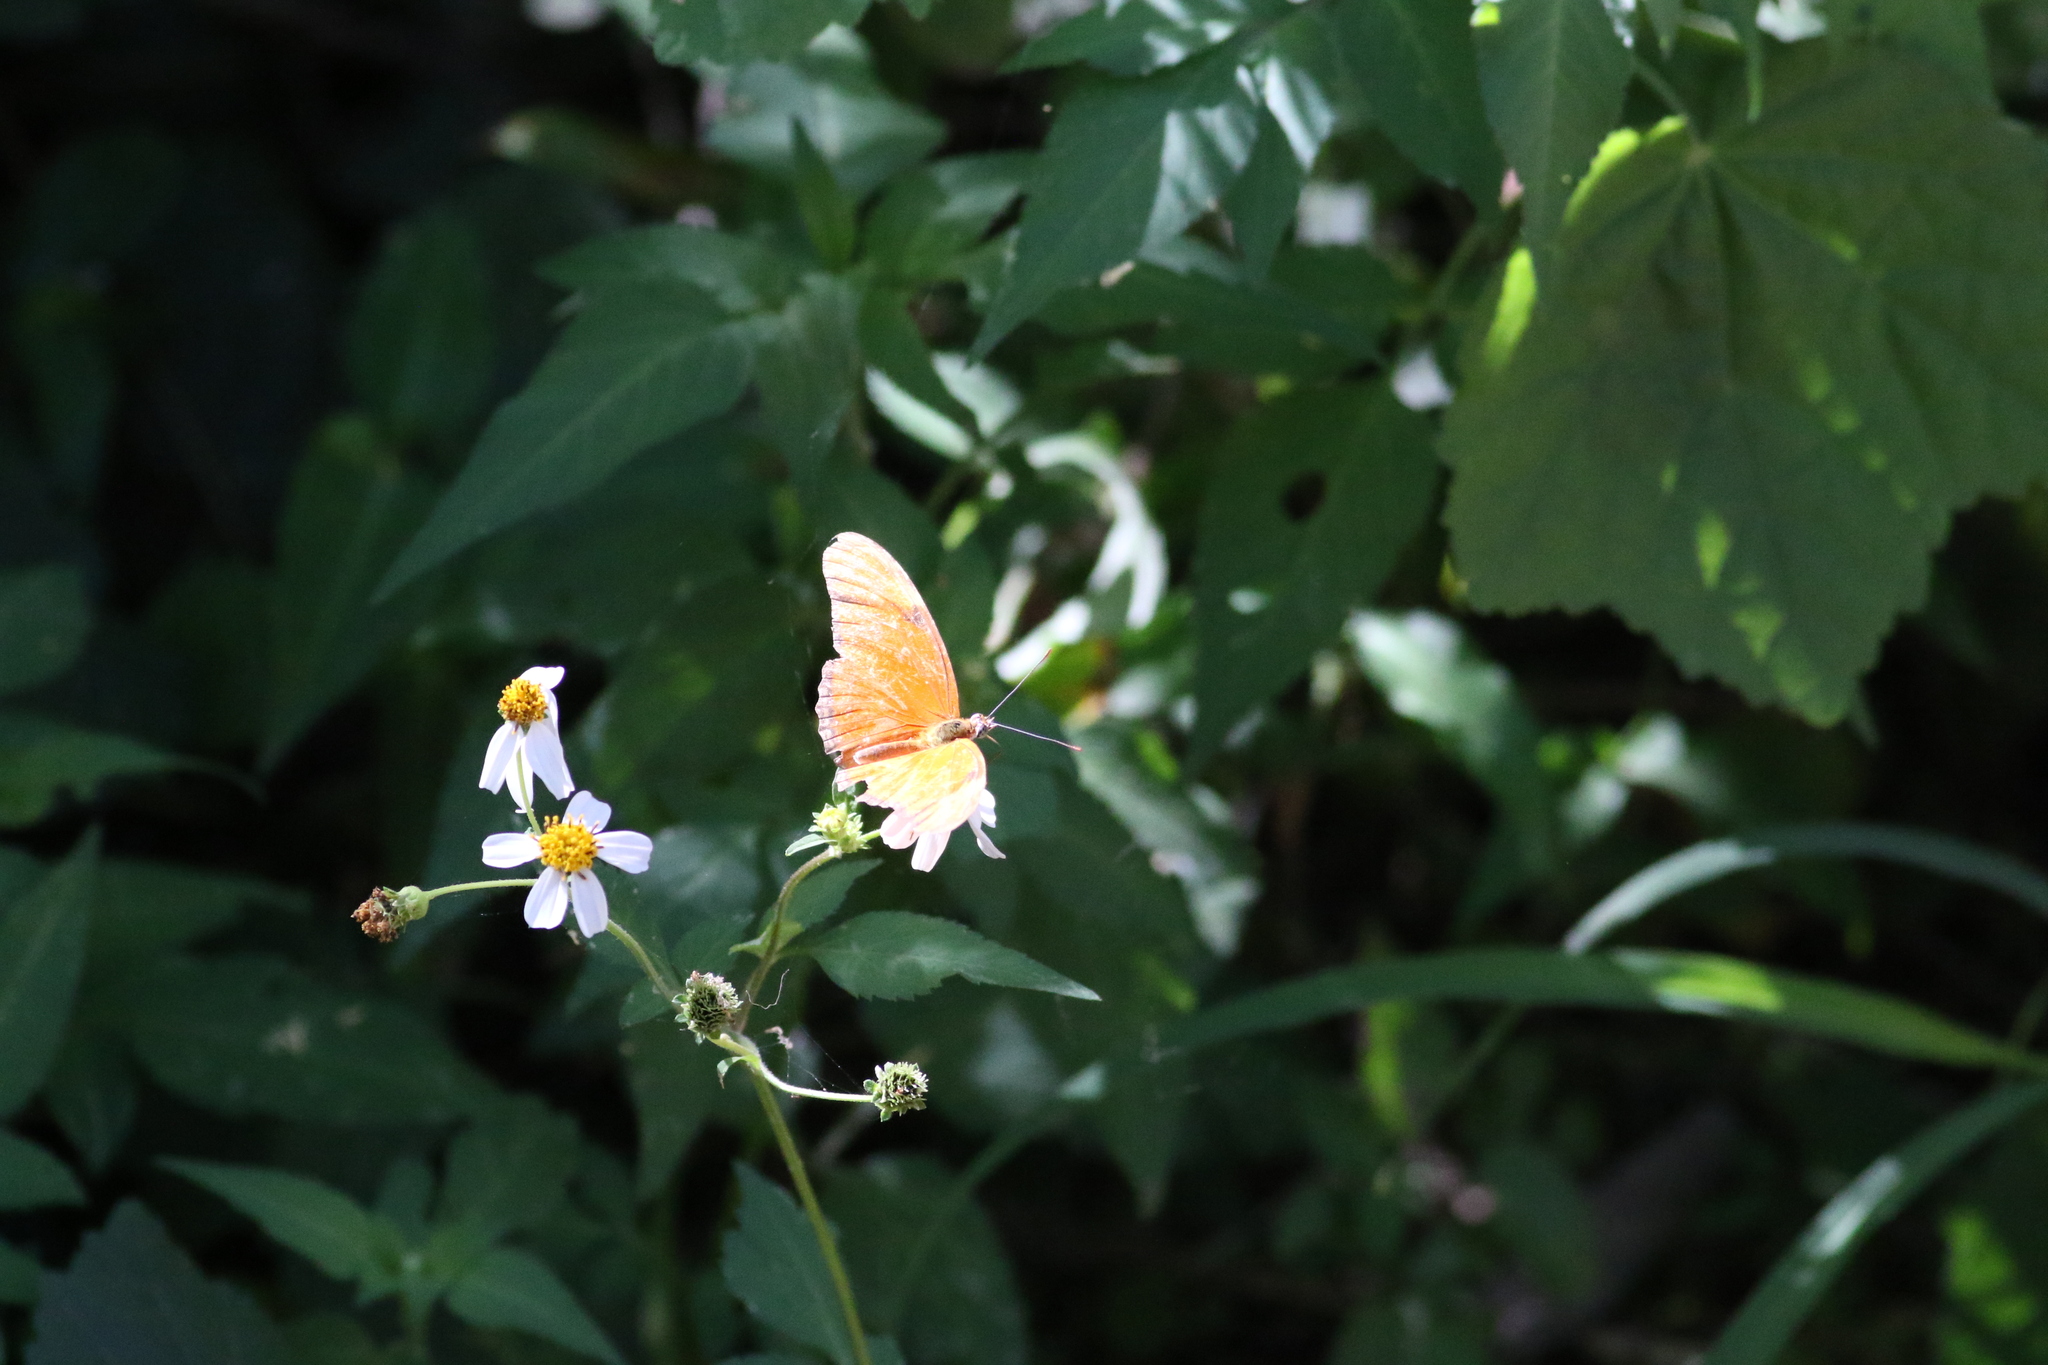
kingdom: Animalia
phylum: Arthropoda
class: Insecta
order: Lepidoptera
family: Nymphalidae
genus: Dryas
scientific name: Dryas iulia
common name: Flambeau
